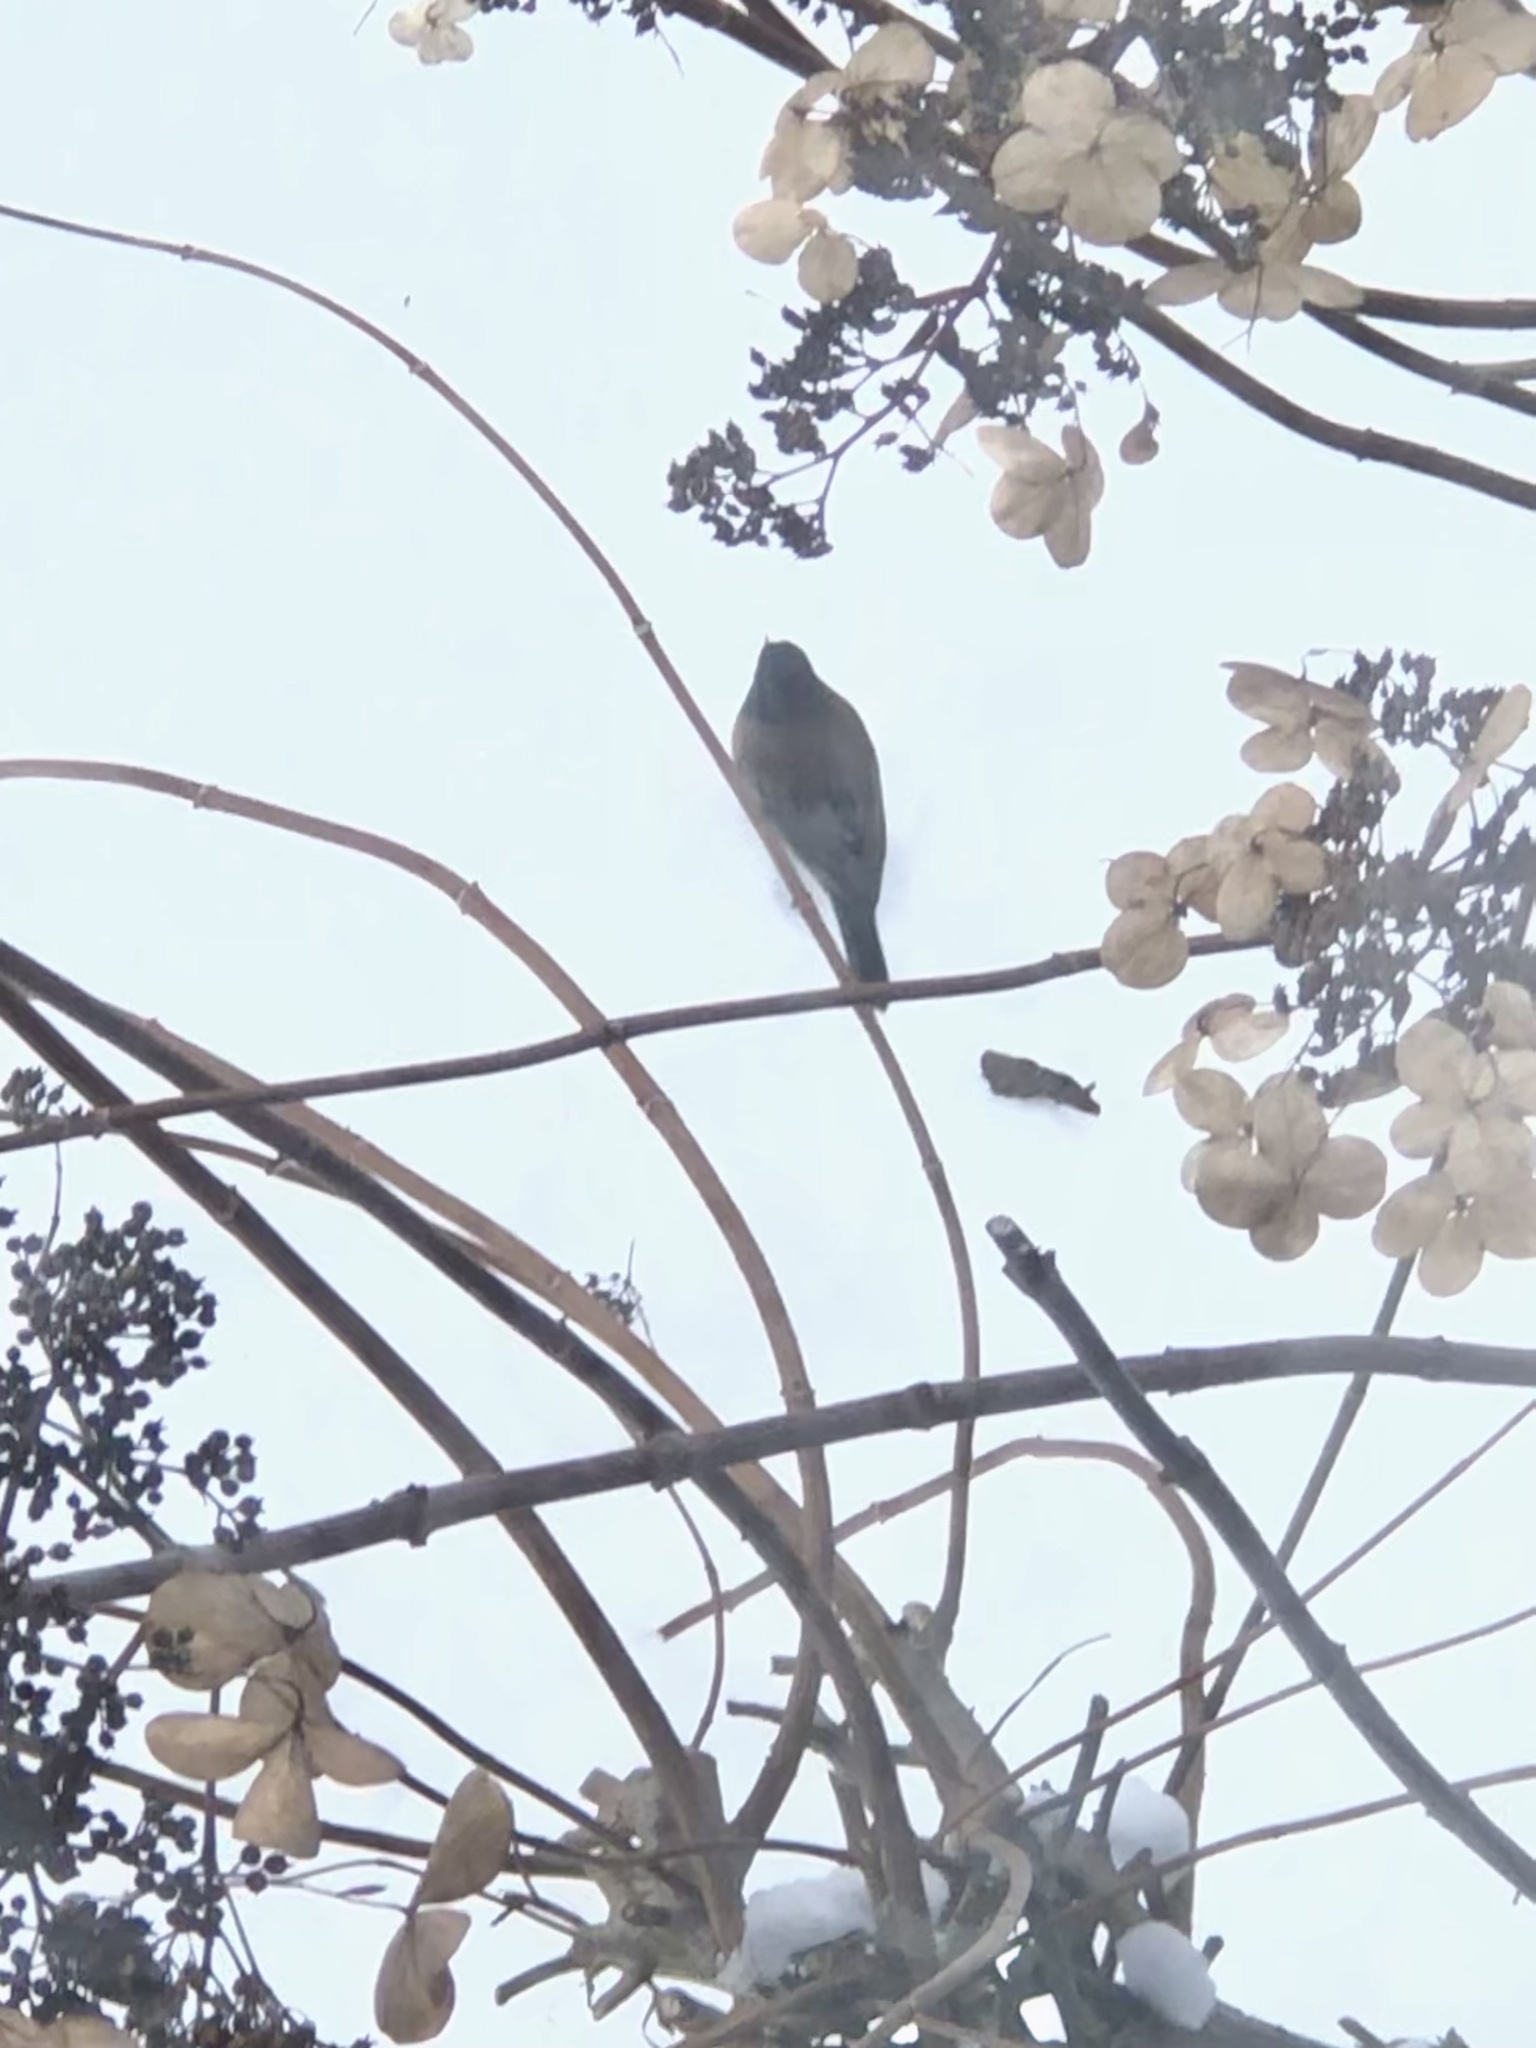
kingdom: Animalia
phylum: Chordata
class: Aves
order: Passeriformes
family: Passerellidae
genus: Junco
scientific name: Junco hyemalis
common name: Dark-eyed junco
